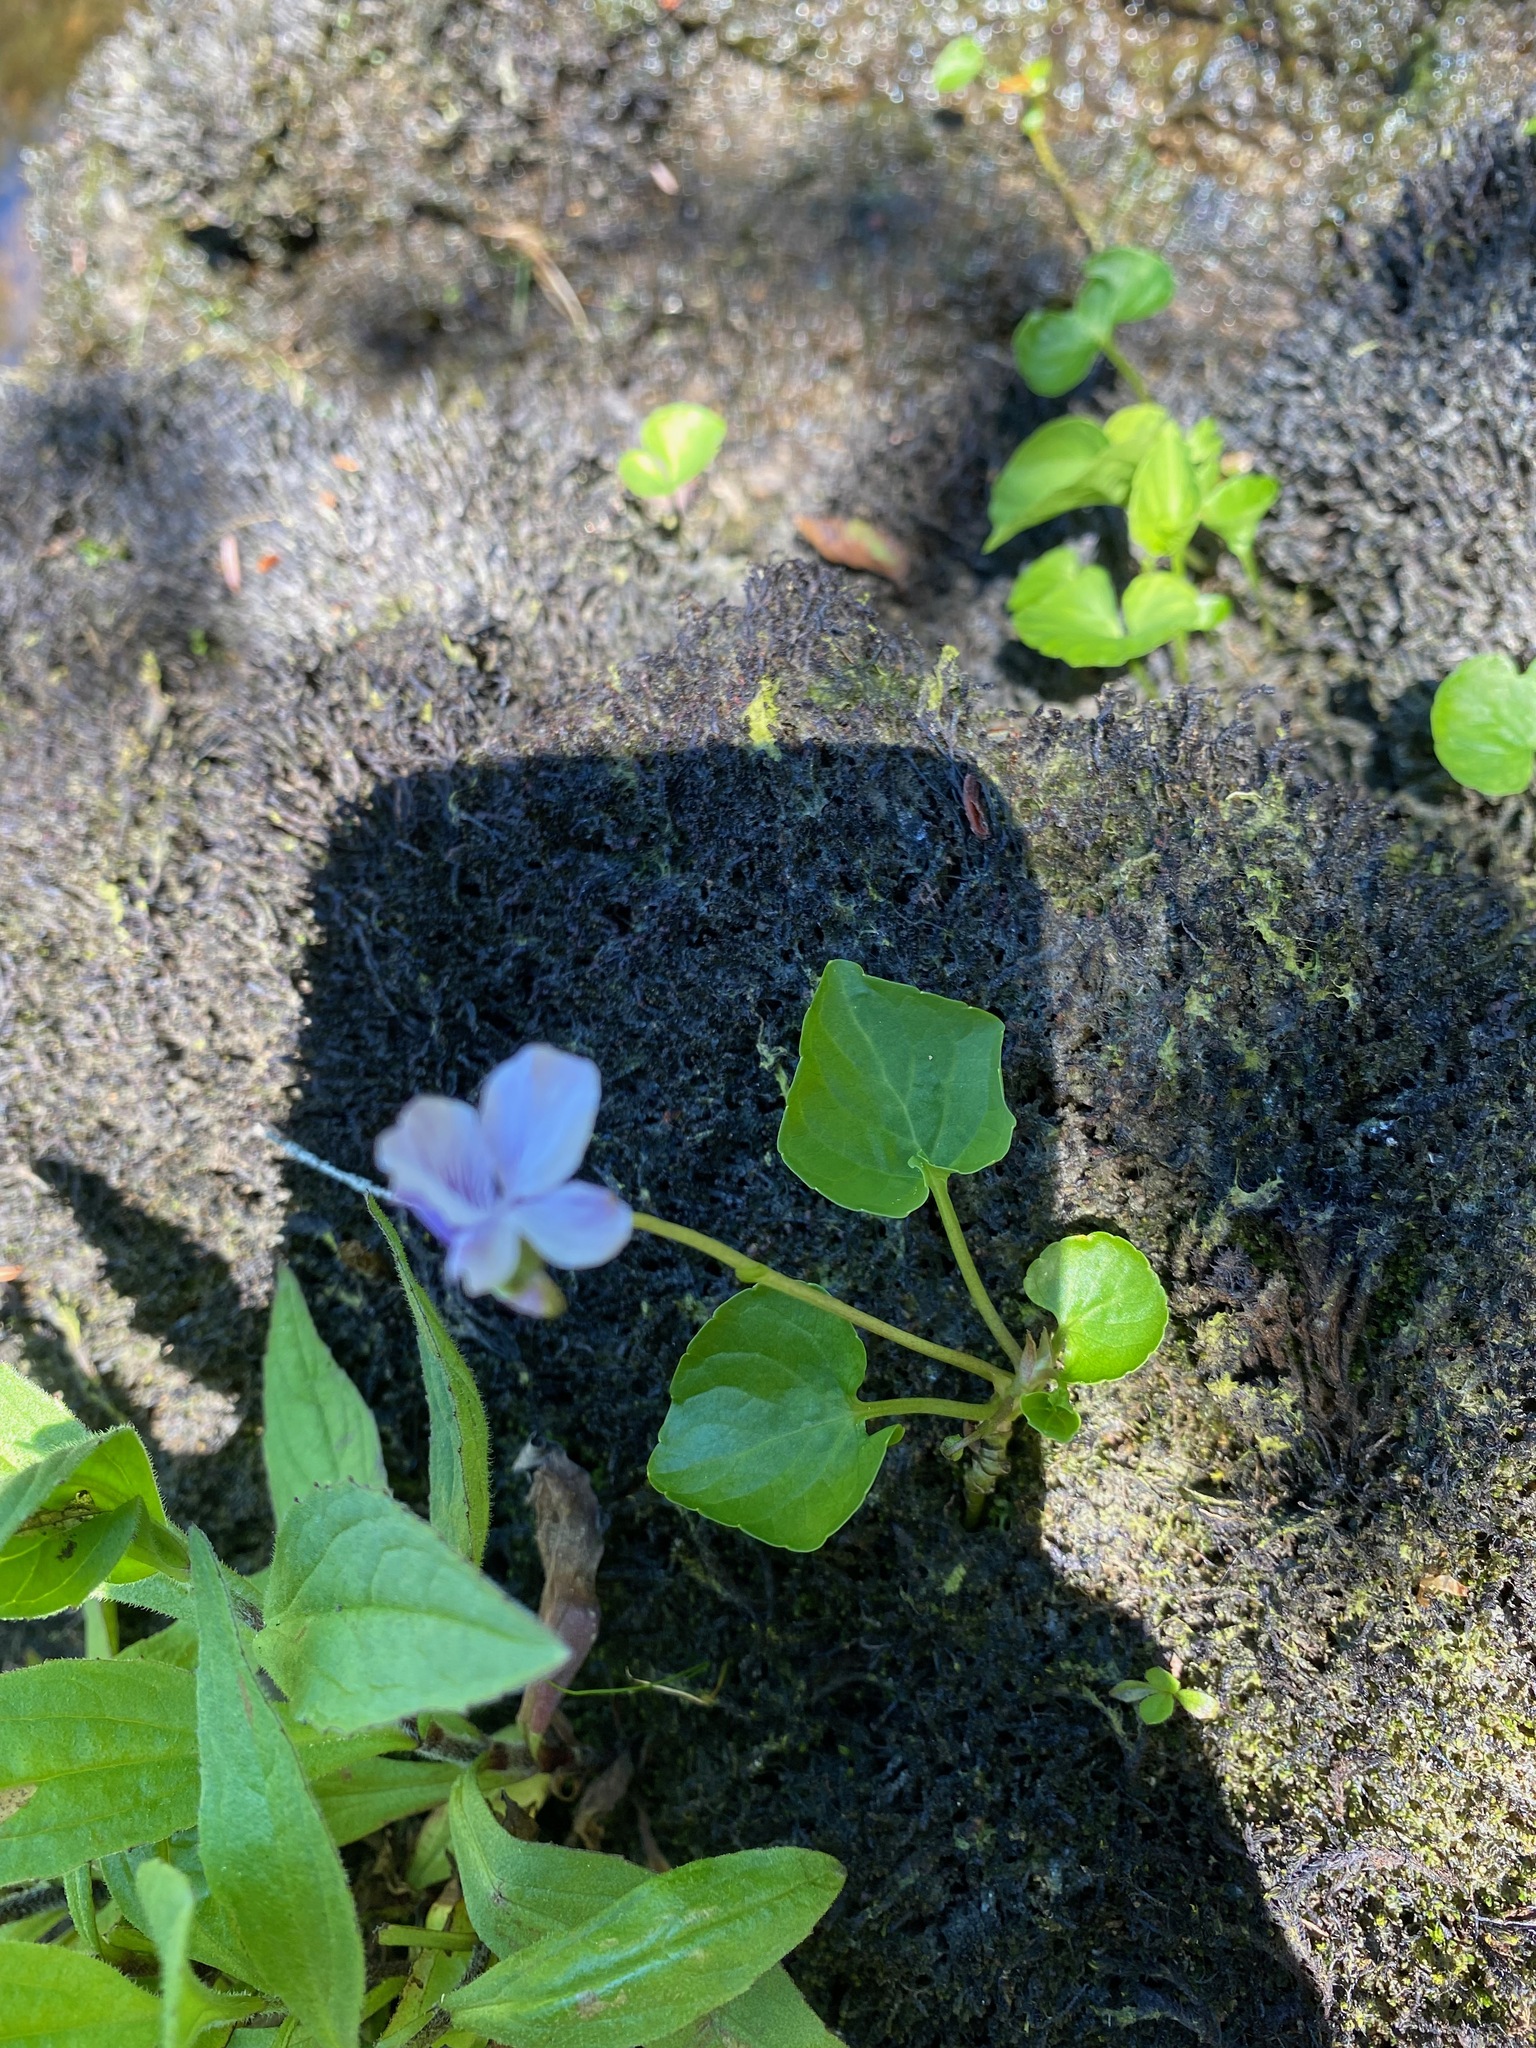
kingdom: Plantae
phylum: Tracheophyta
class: Magnoliopsida
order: Malpighiales
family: Violaceae
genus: Viola
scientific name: Viola palustris
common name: Marsh violet
